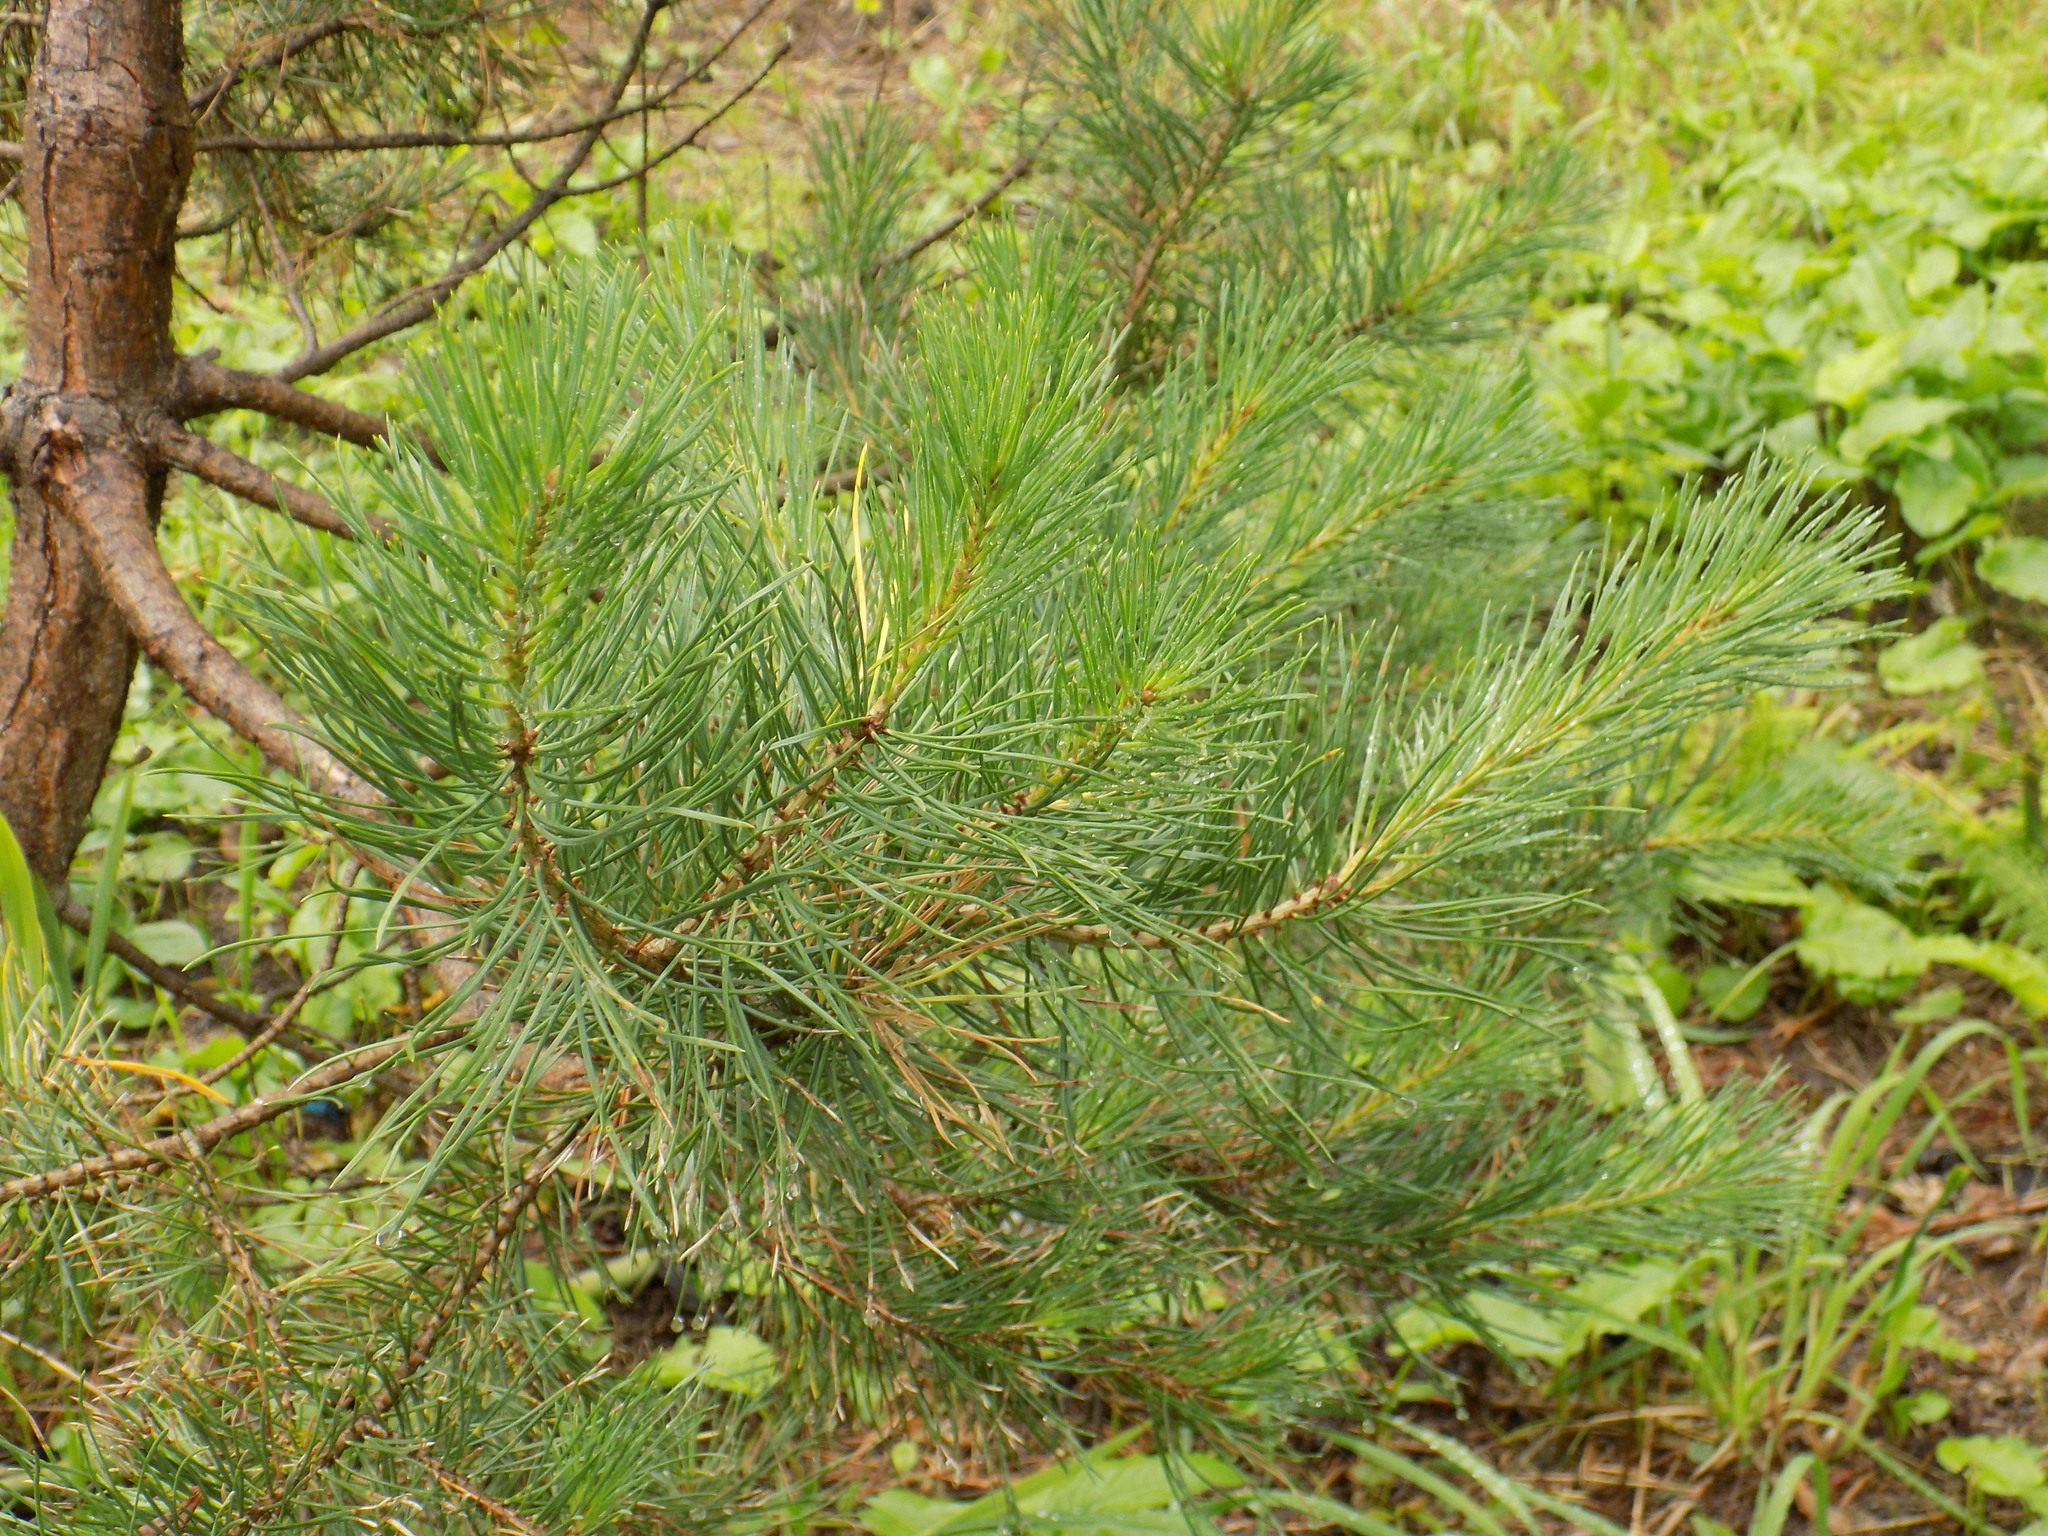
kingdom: Plantae
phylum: Tracheophyta
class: Pinopsida
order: Pinales
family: Pinaceae
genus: Pinus
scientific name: Pinus sylvestris
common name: Scots pine
